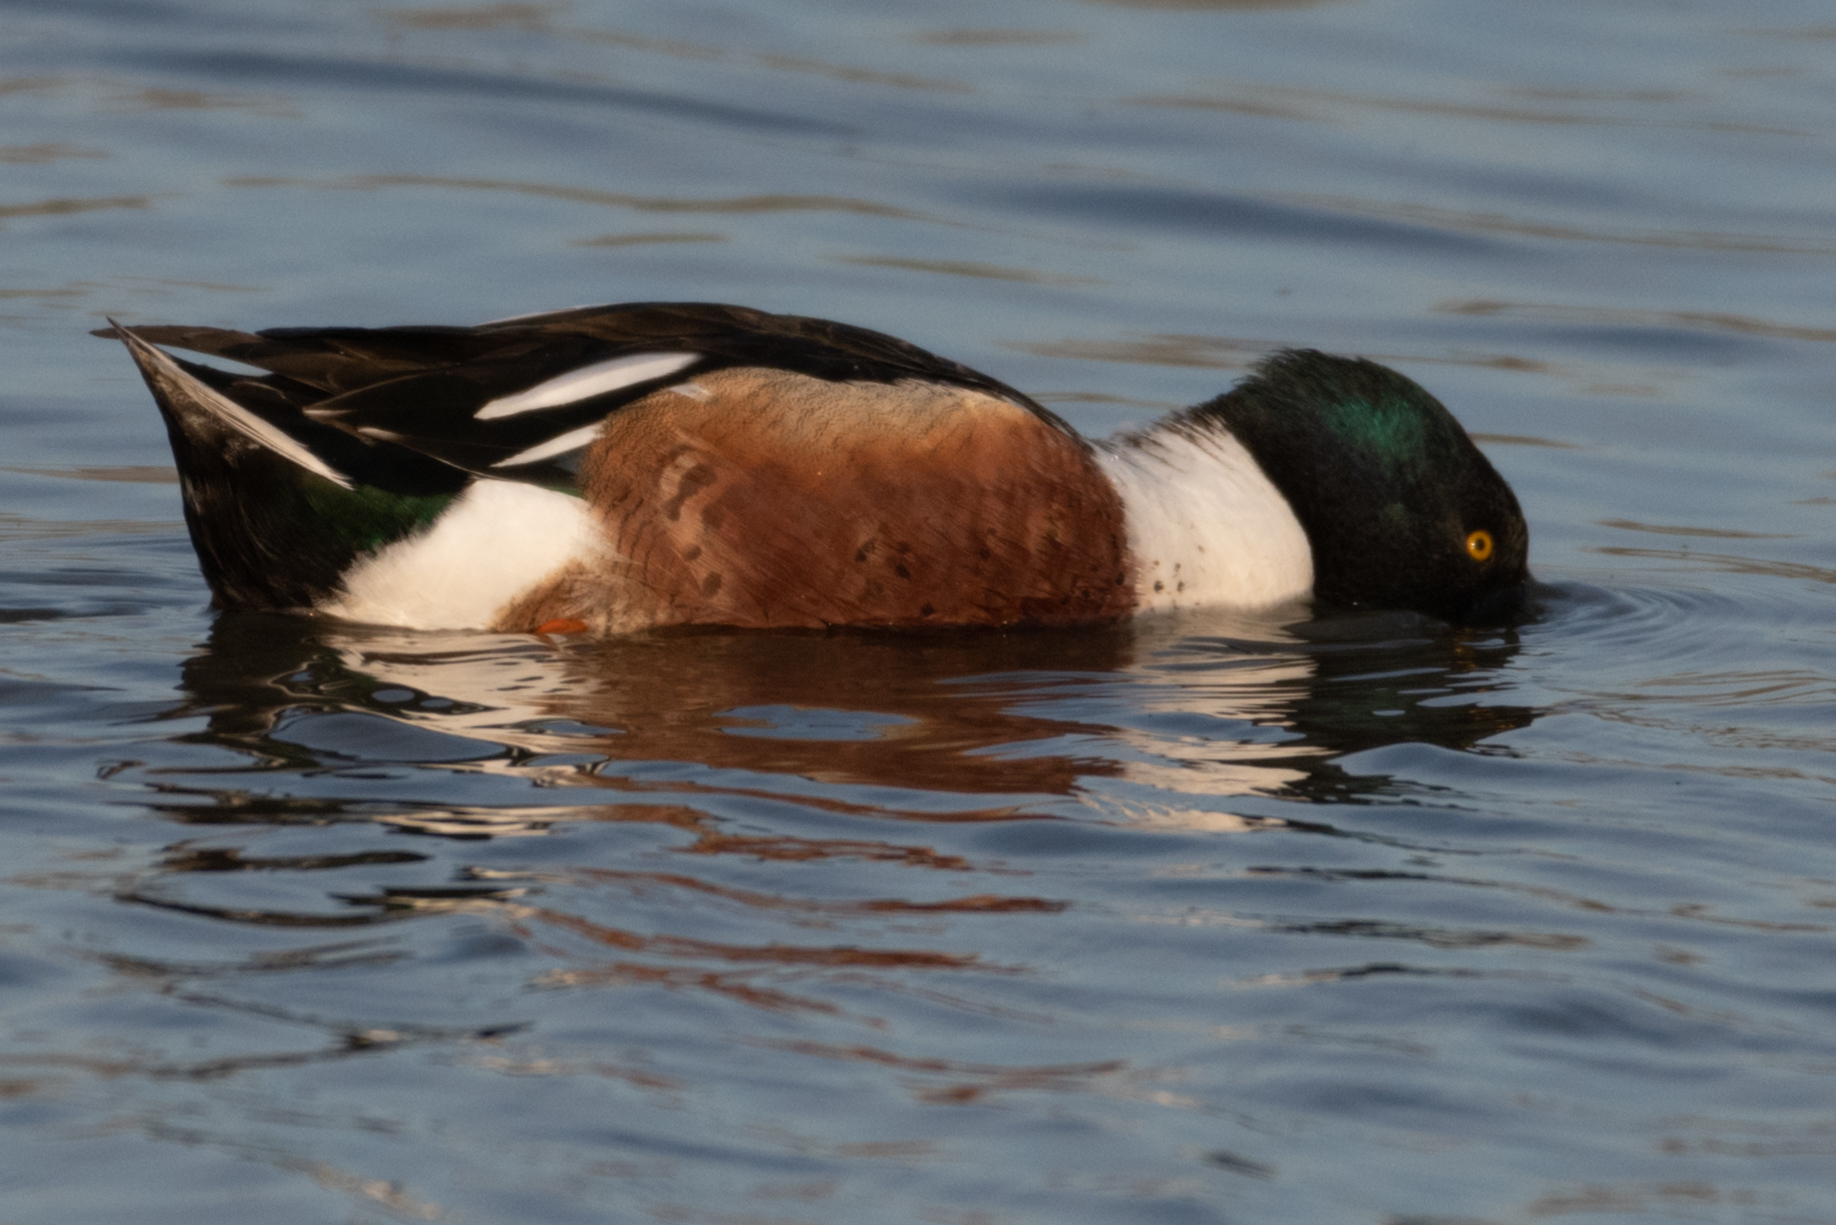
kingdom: Animalia
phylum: Chordata
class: Aves
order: Anseriformes
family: Anatidae
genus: Spatula
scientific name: Spatula clypeata
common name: Northern shoveler
